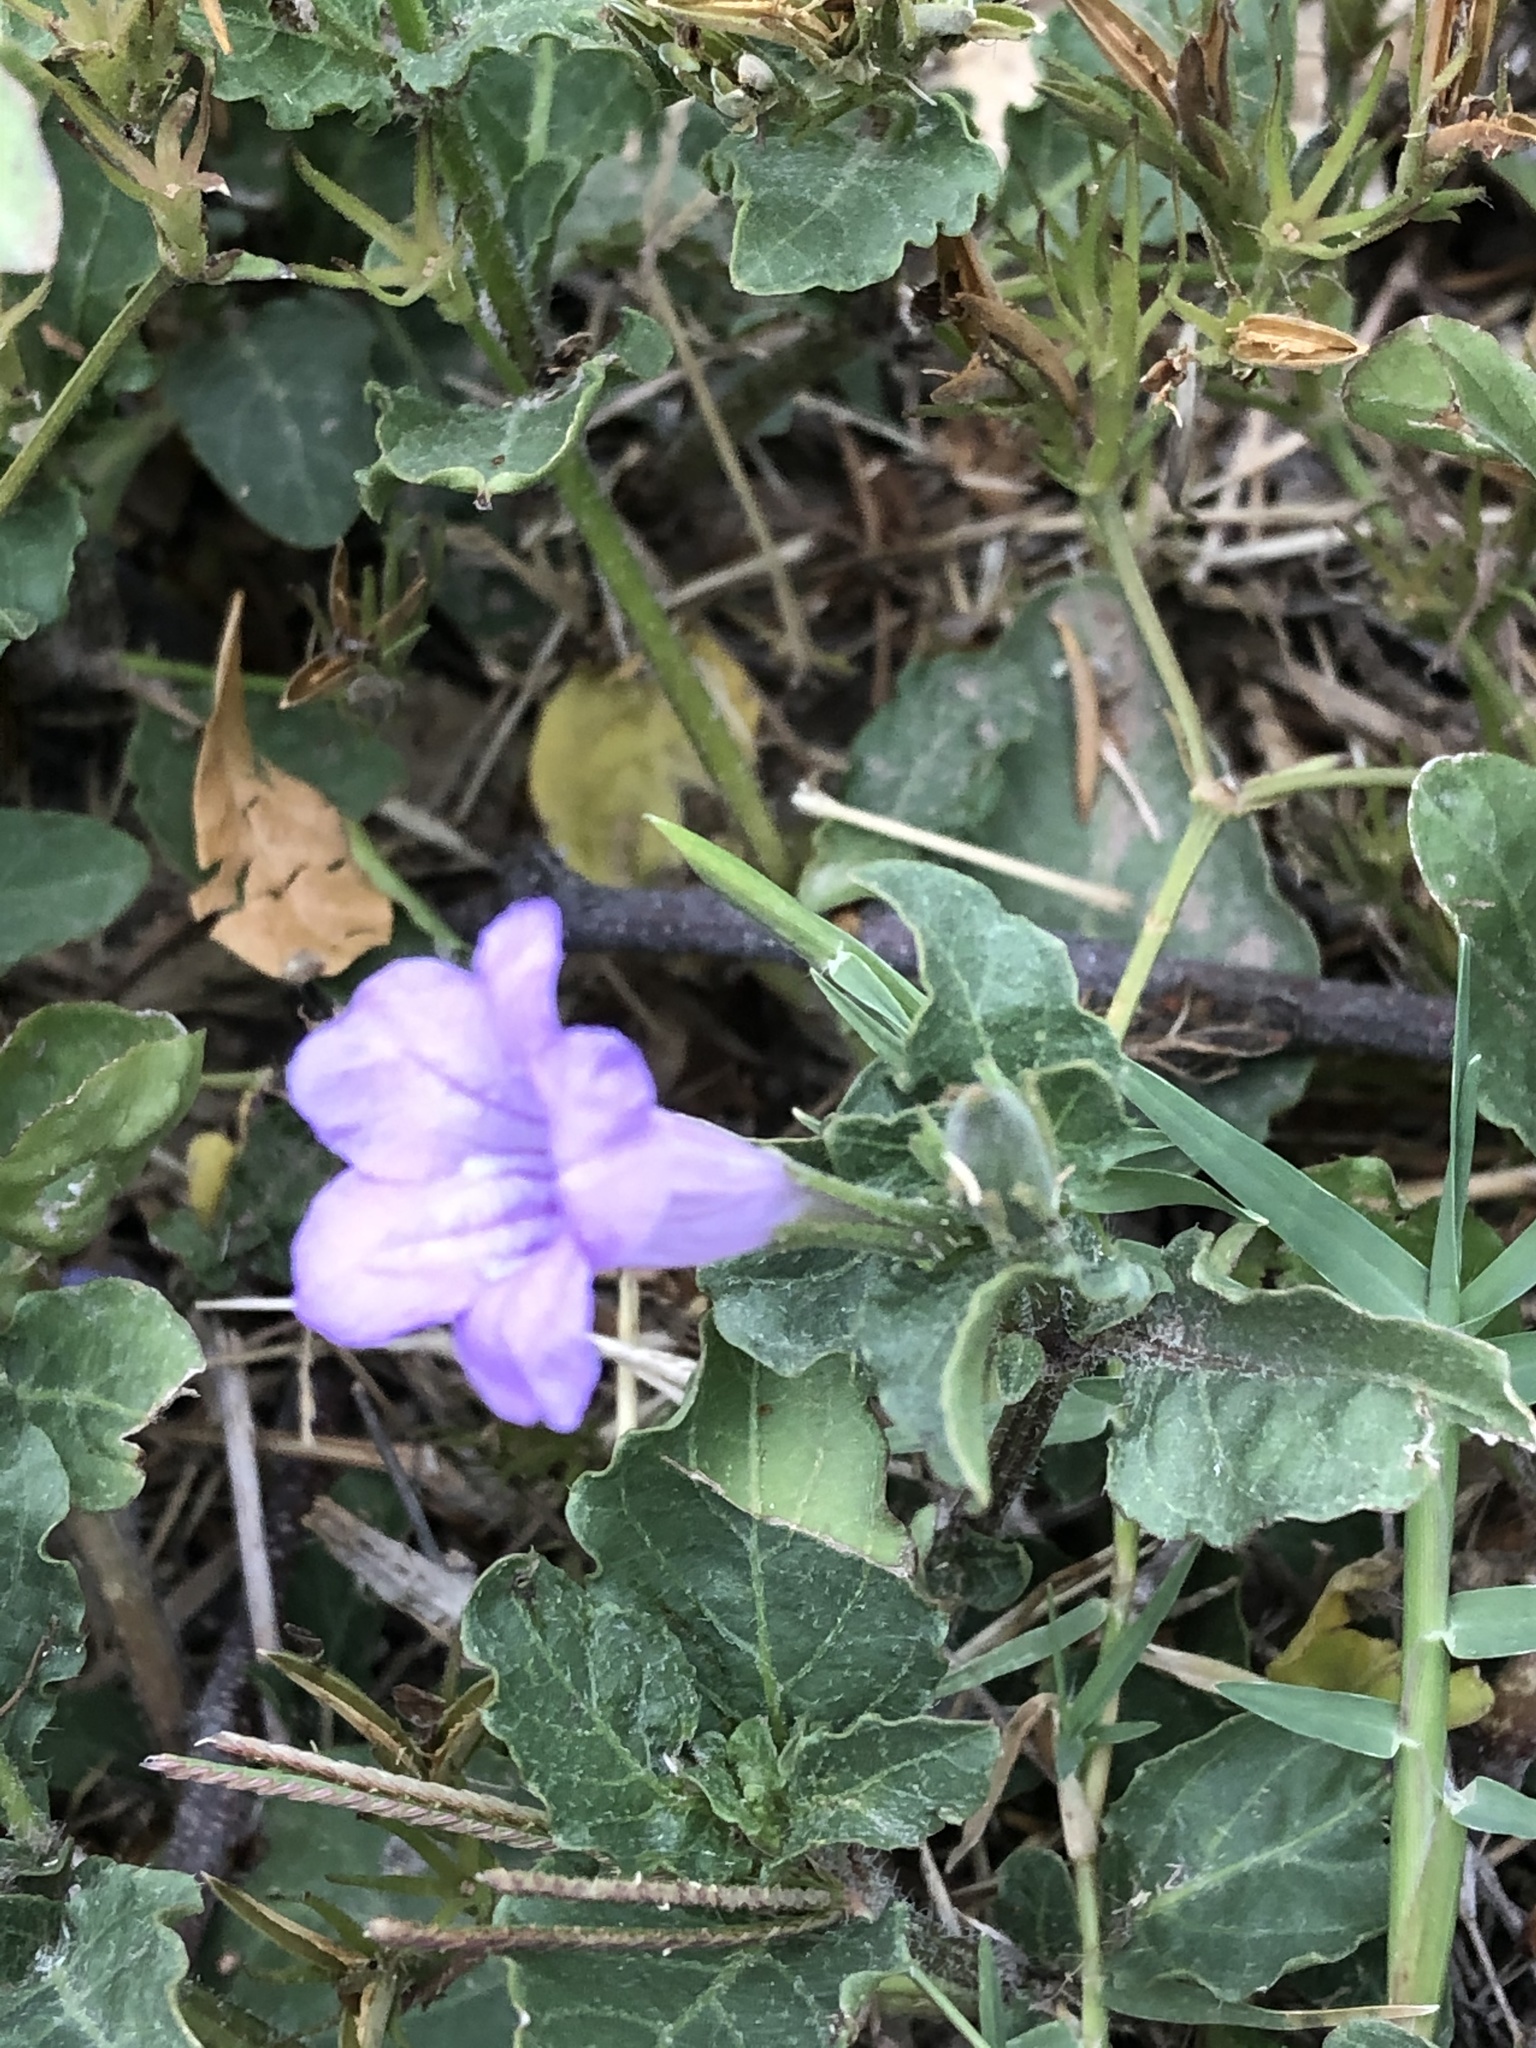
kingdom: Plantae
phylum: Tracheophyta
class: Magnoliopsida
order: Lamiales
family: Acanthaceae
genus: Ruellia
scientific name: Ruellia ciliatiflora
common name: Hairyflower wild petunia
